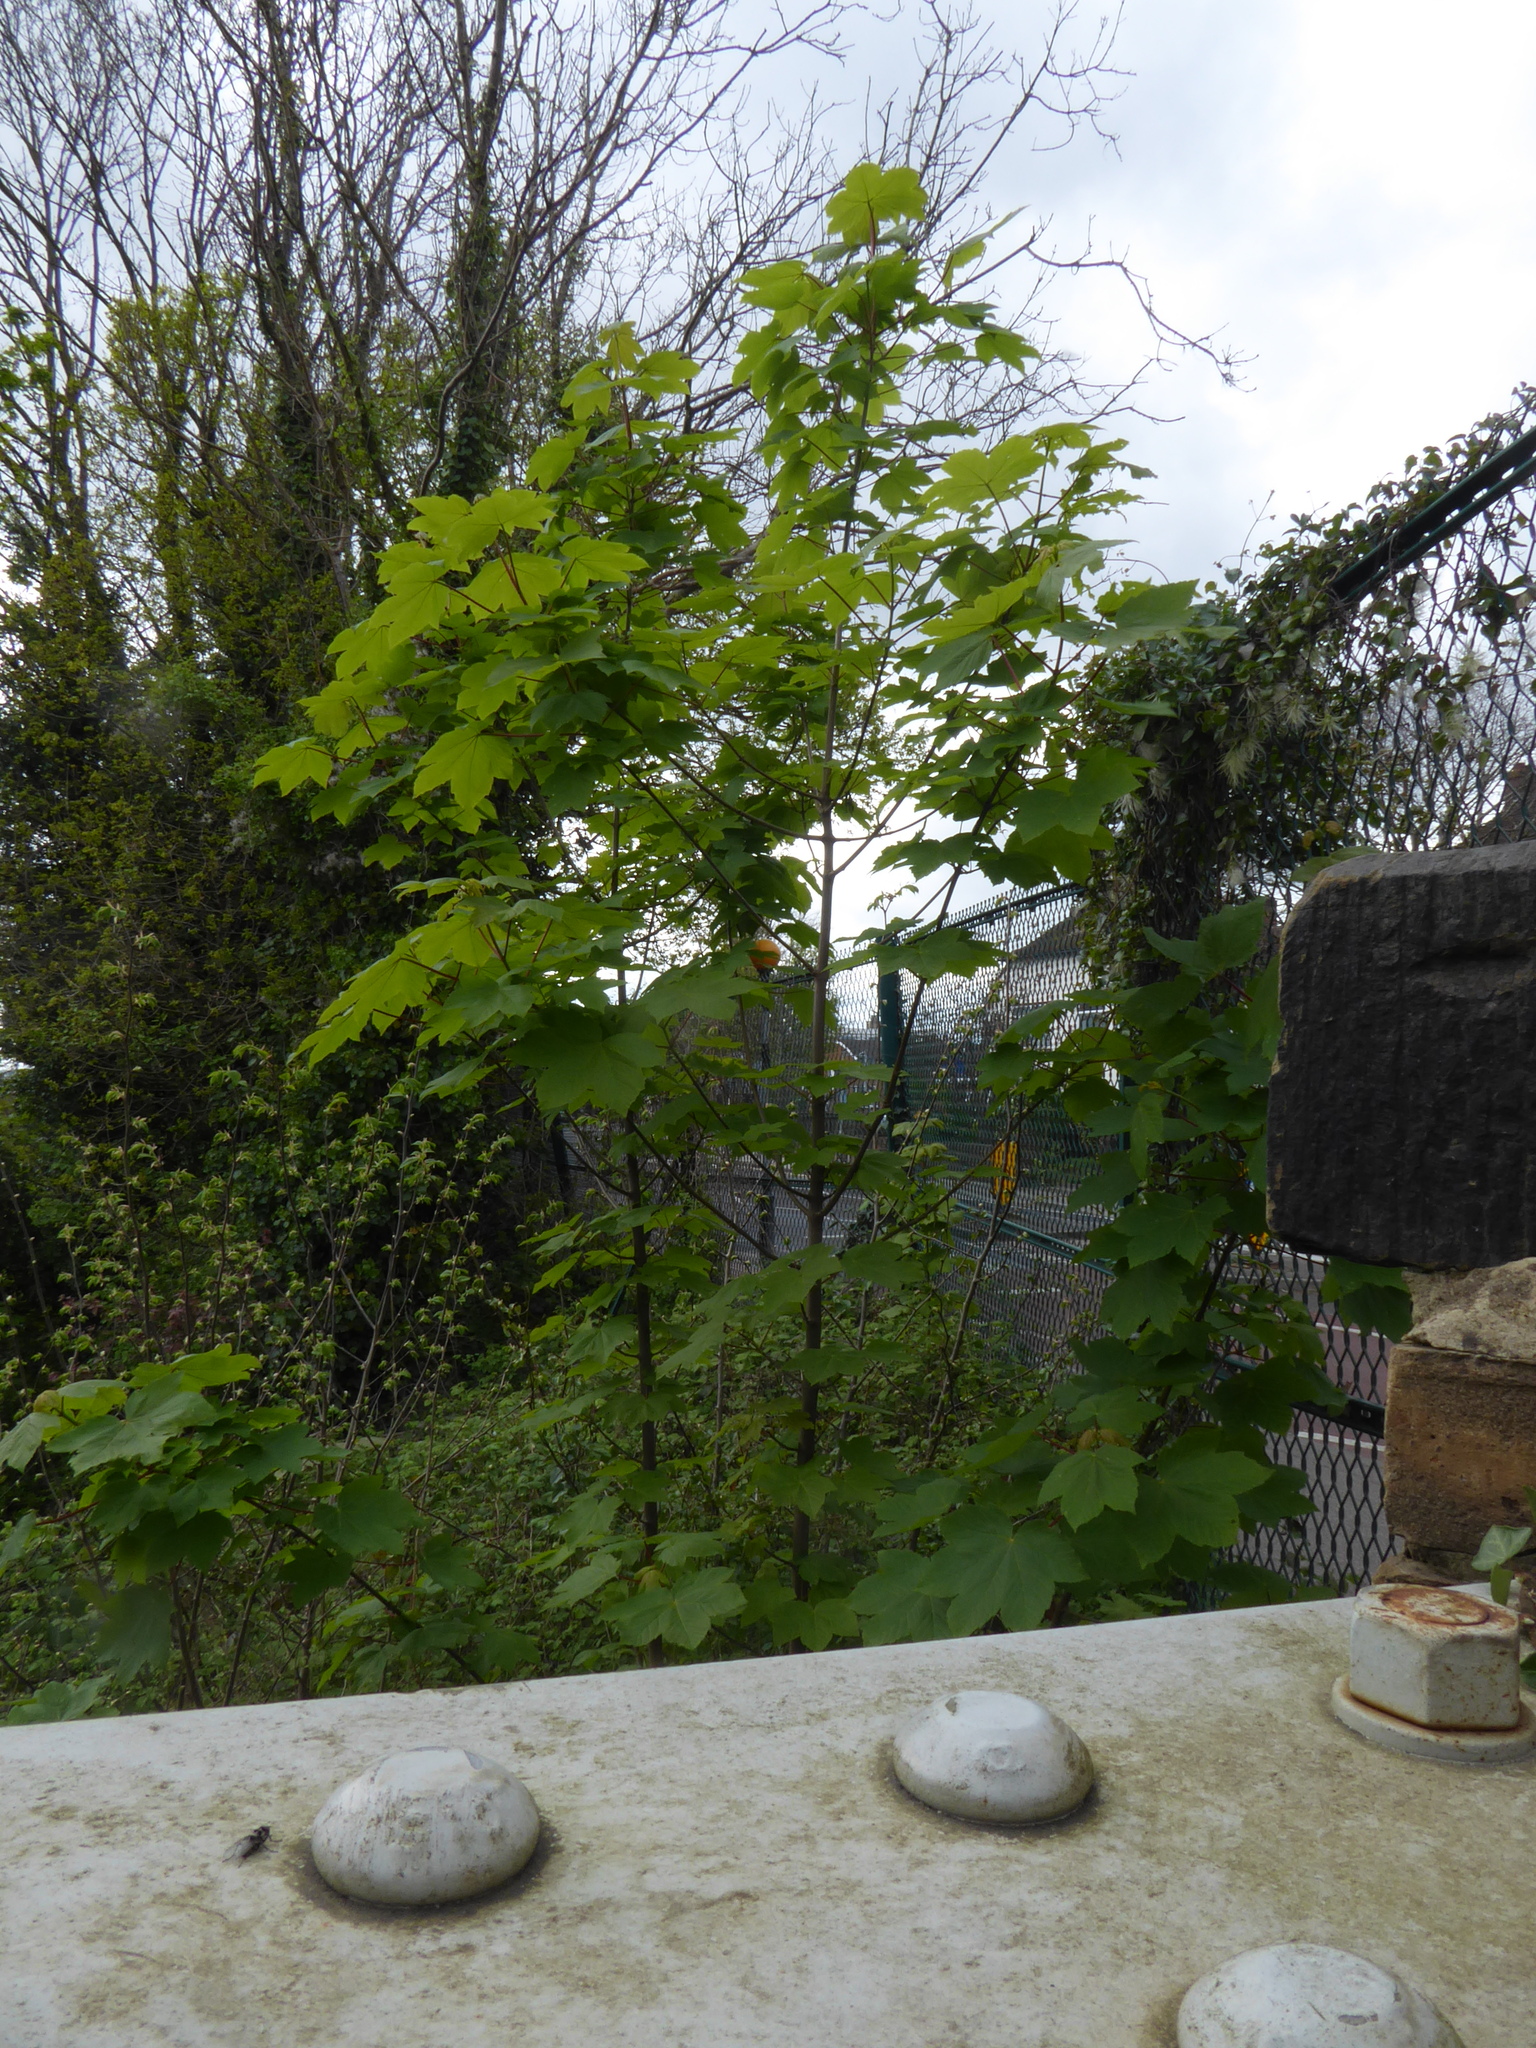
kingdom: Plantae
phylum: Tracheophyta
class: Magnoliopsida
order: Sapindales
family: Sapindaceae
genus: Acer
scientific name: Acer pseudoplatanus
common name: Sycamore
